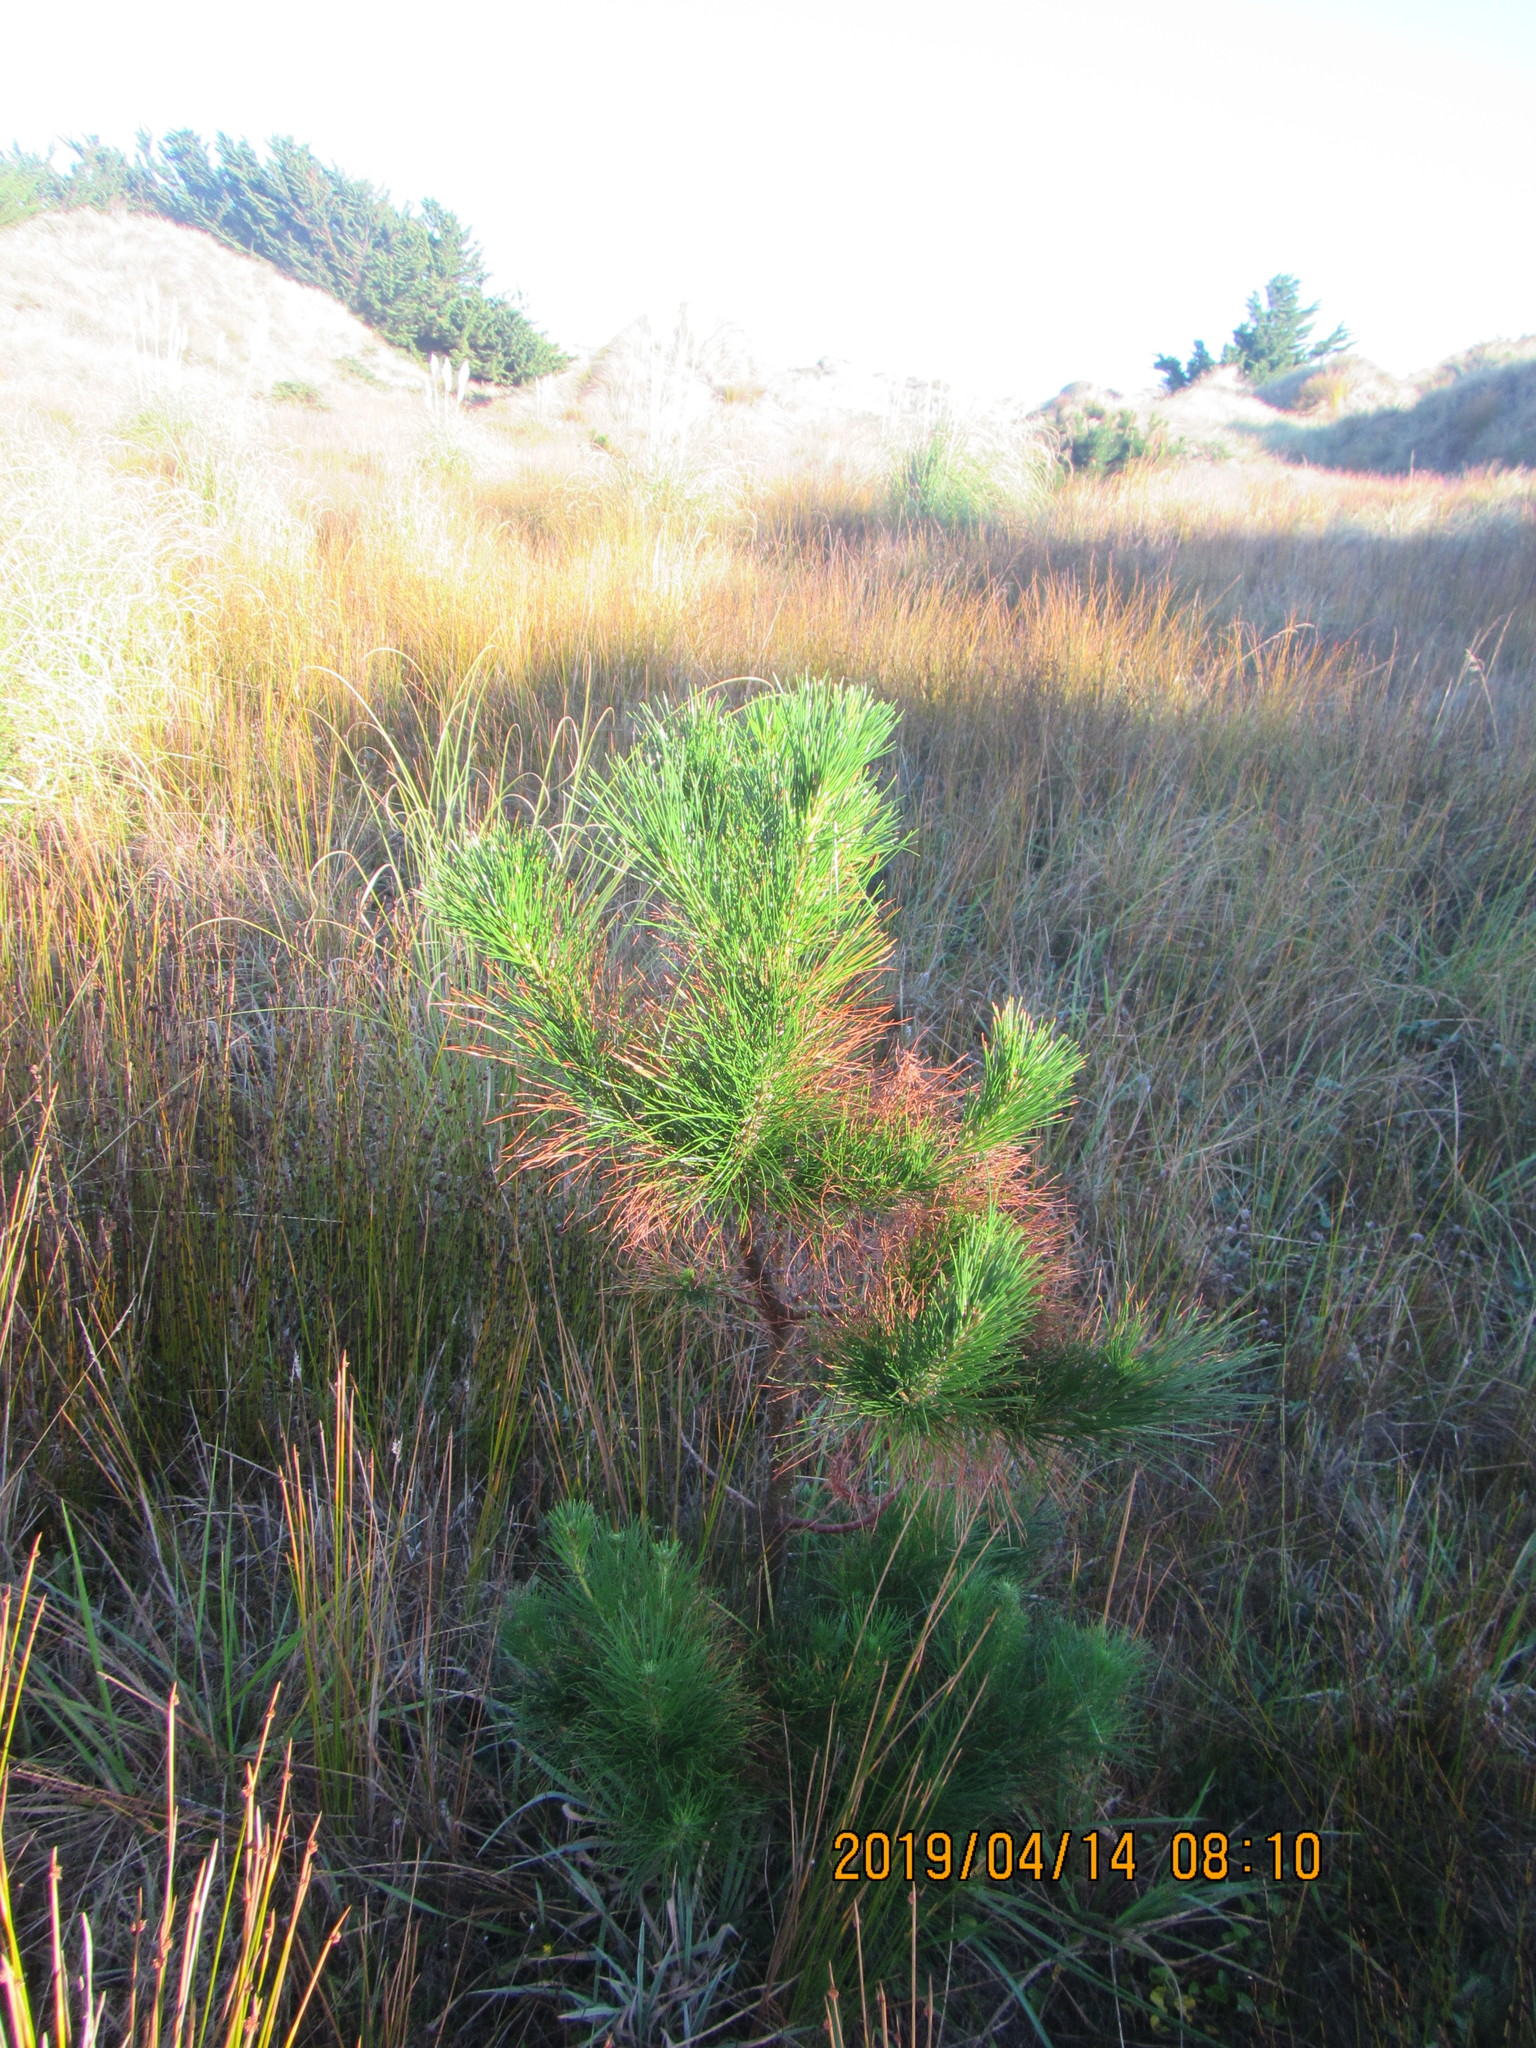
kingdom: Plantae
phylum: Tracheophyta
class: Pinopsida
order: Pinales
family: Pinaceae
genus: Pinus
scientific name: Pinus radiata
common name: Monterey pine
